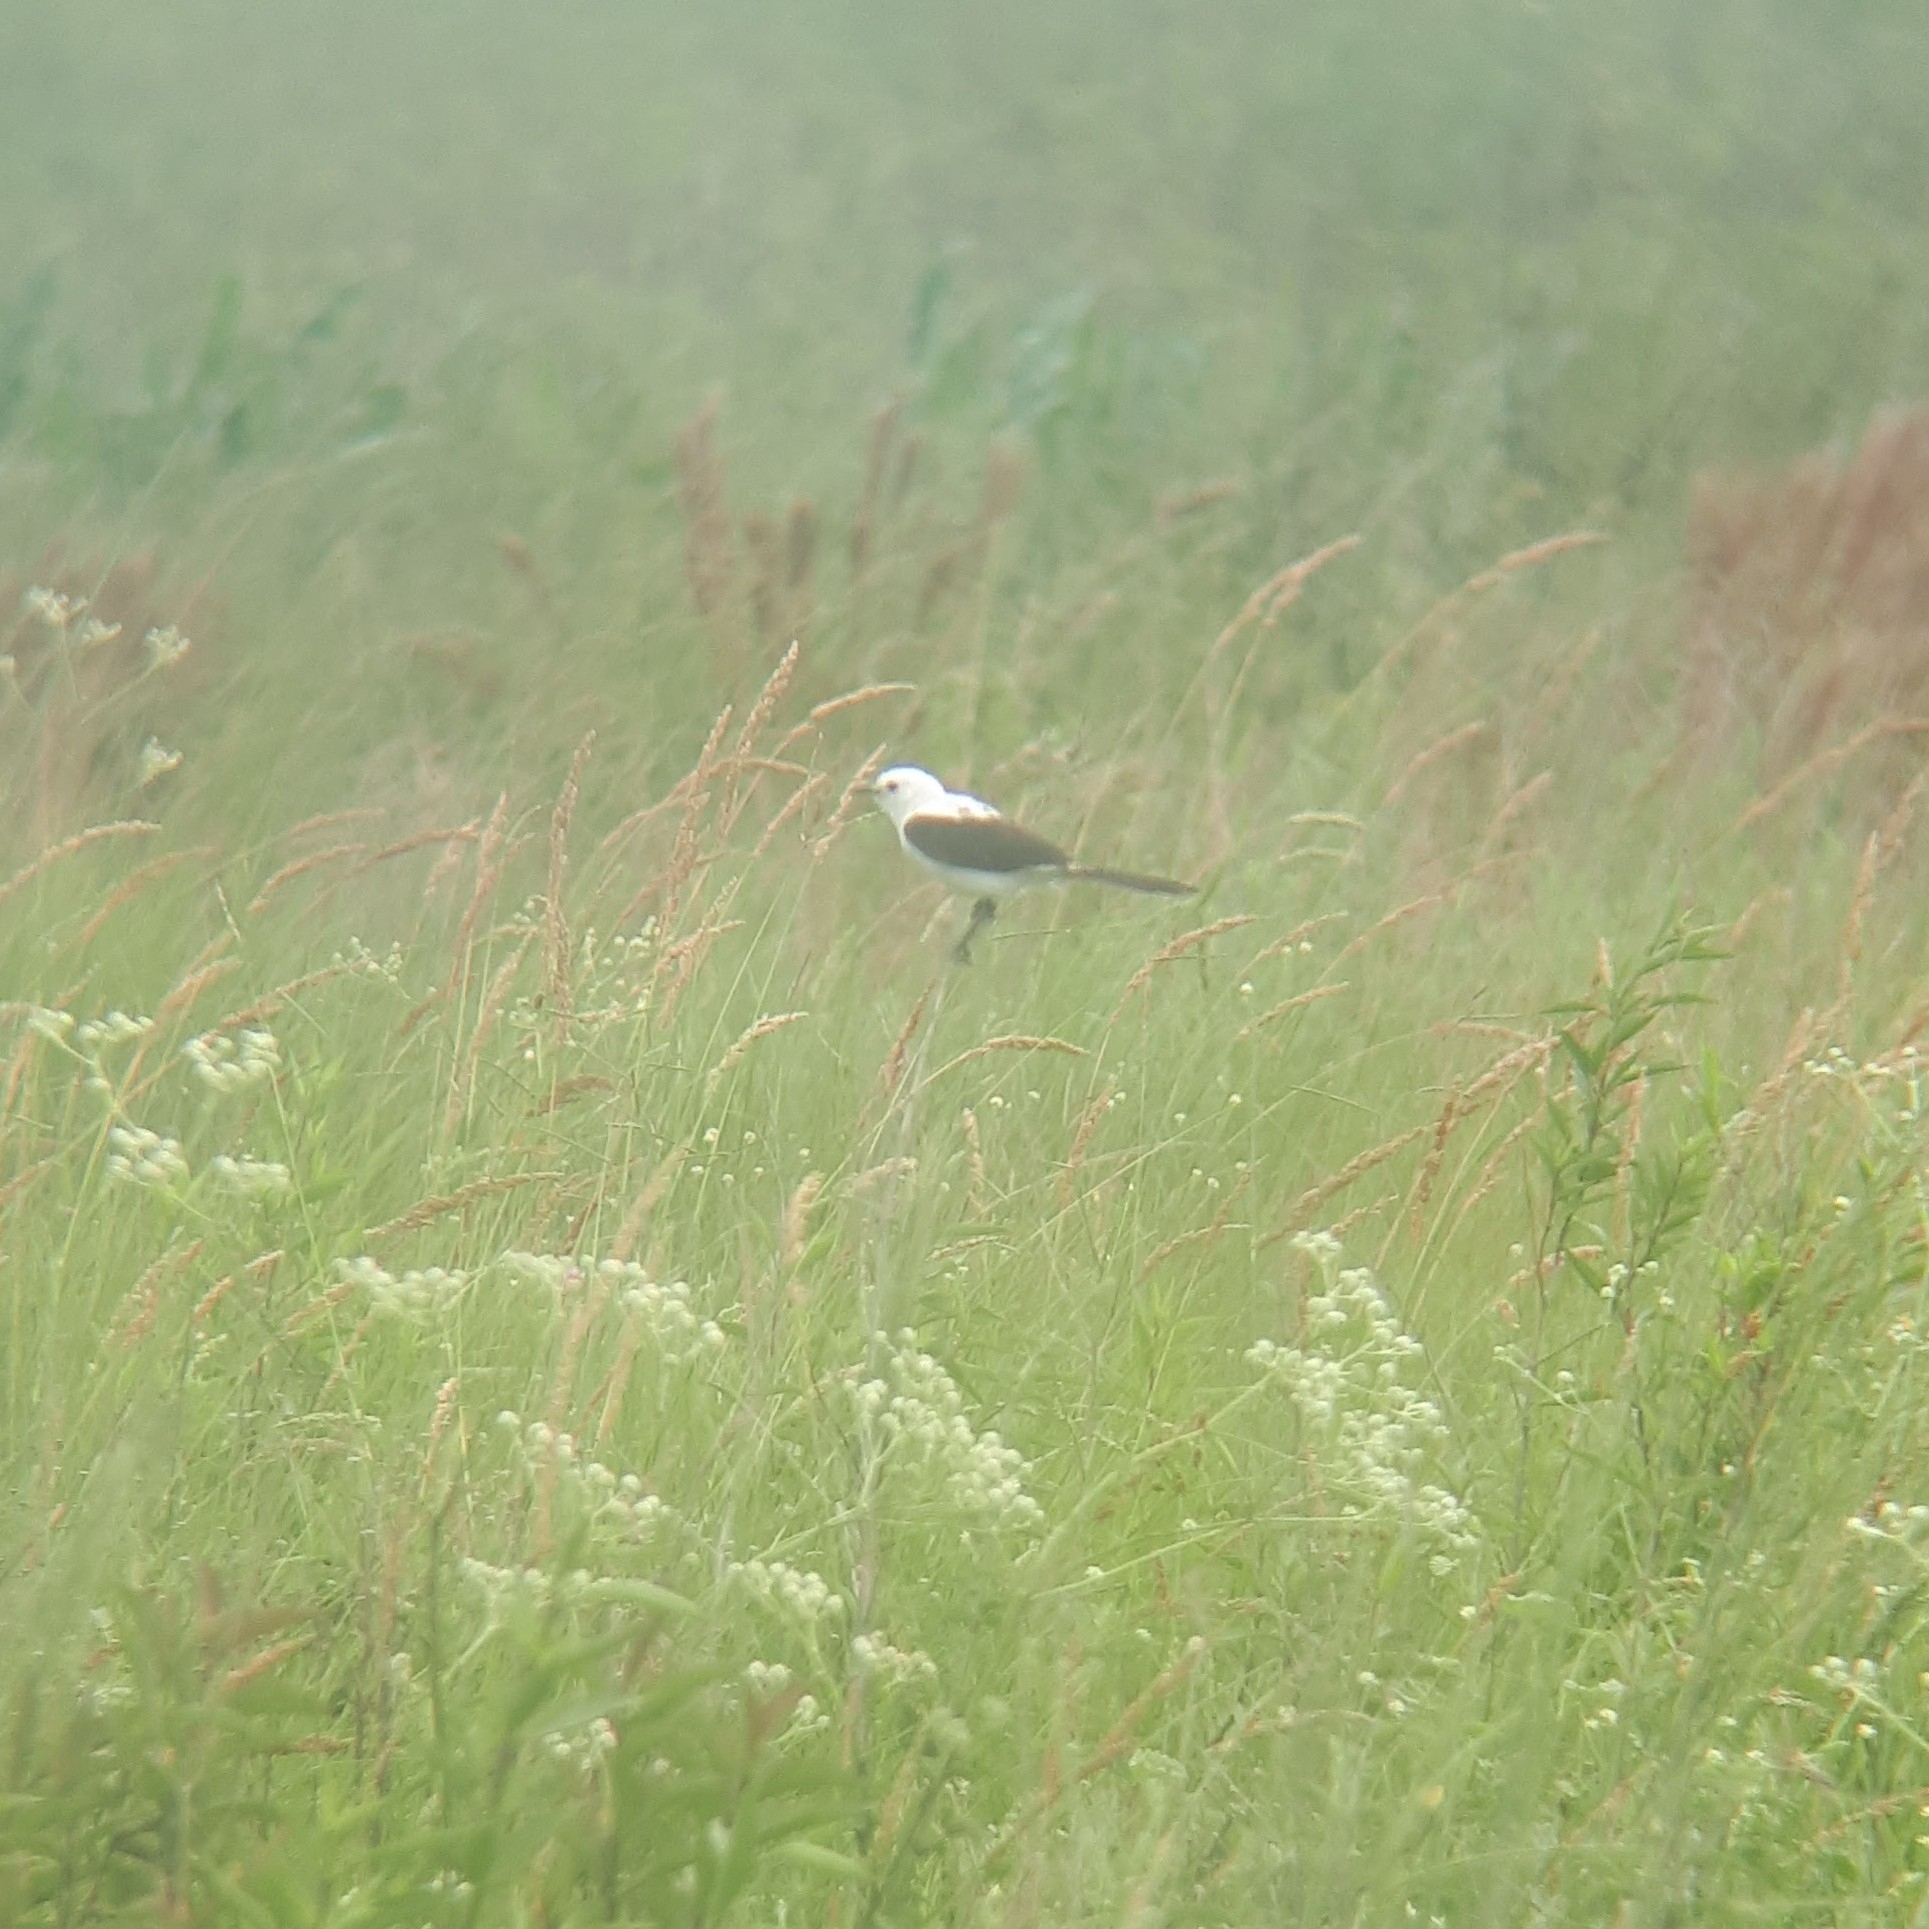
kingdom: Animalia
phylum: Chordata
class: Aves
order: Passeriformes
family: Tyrannidae
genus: Heteroxolmis
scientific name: Heteroxolmis dominicana
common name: Black-and-white monjita
